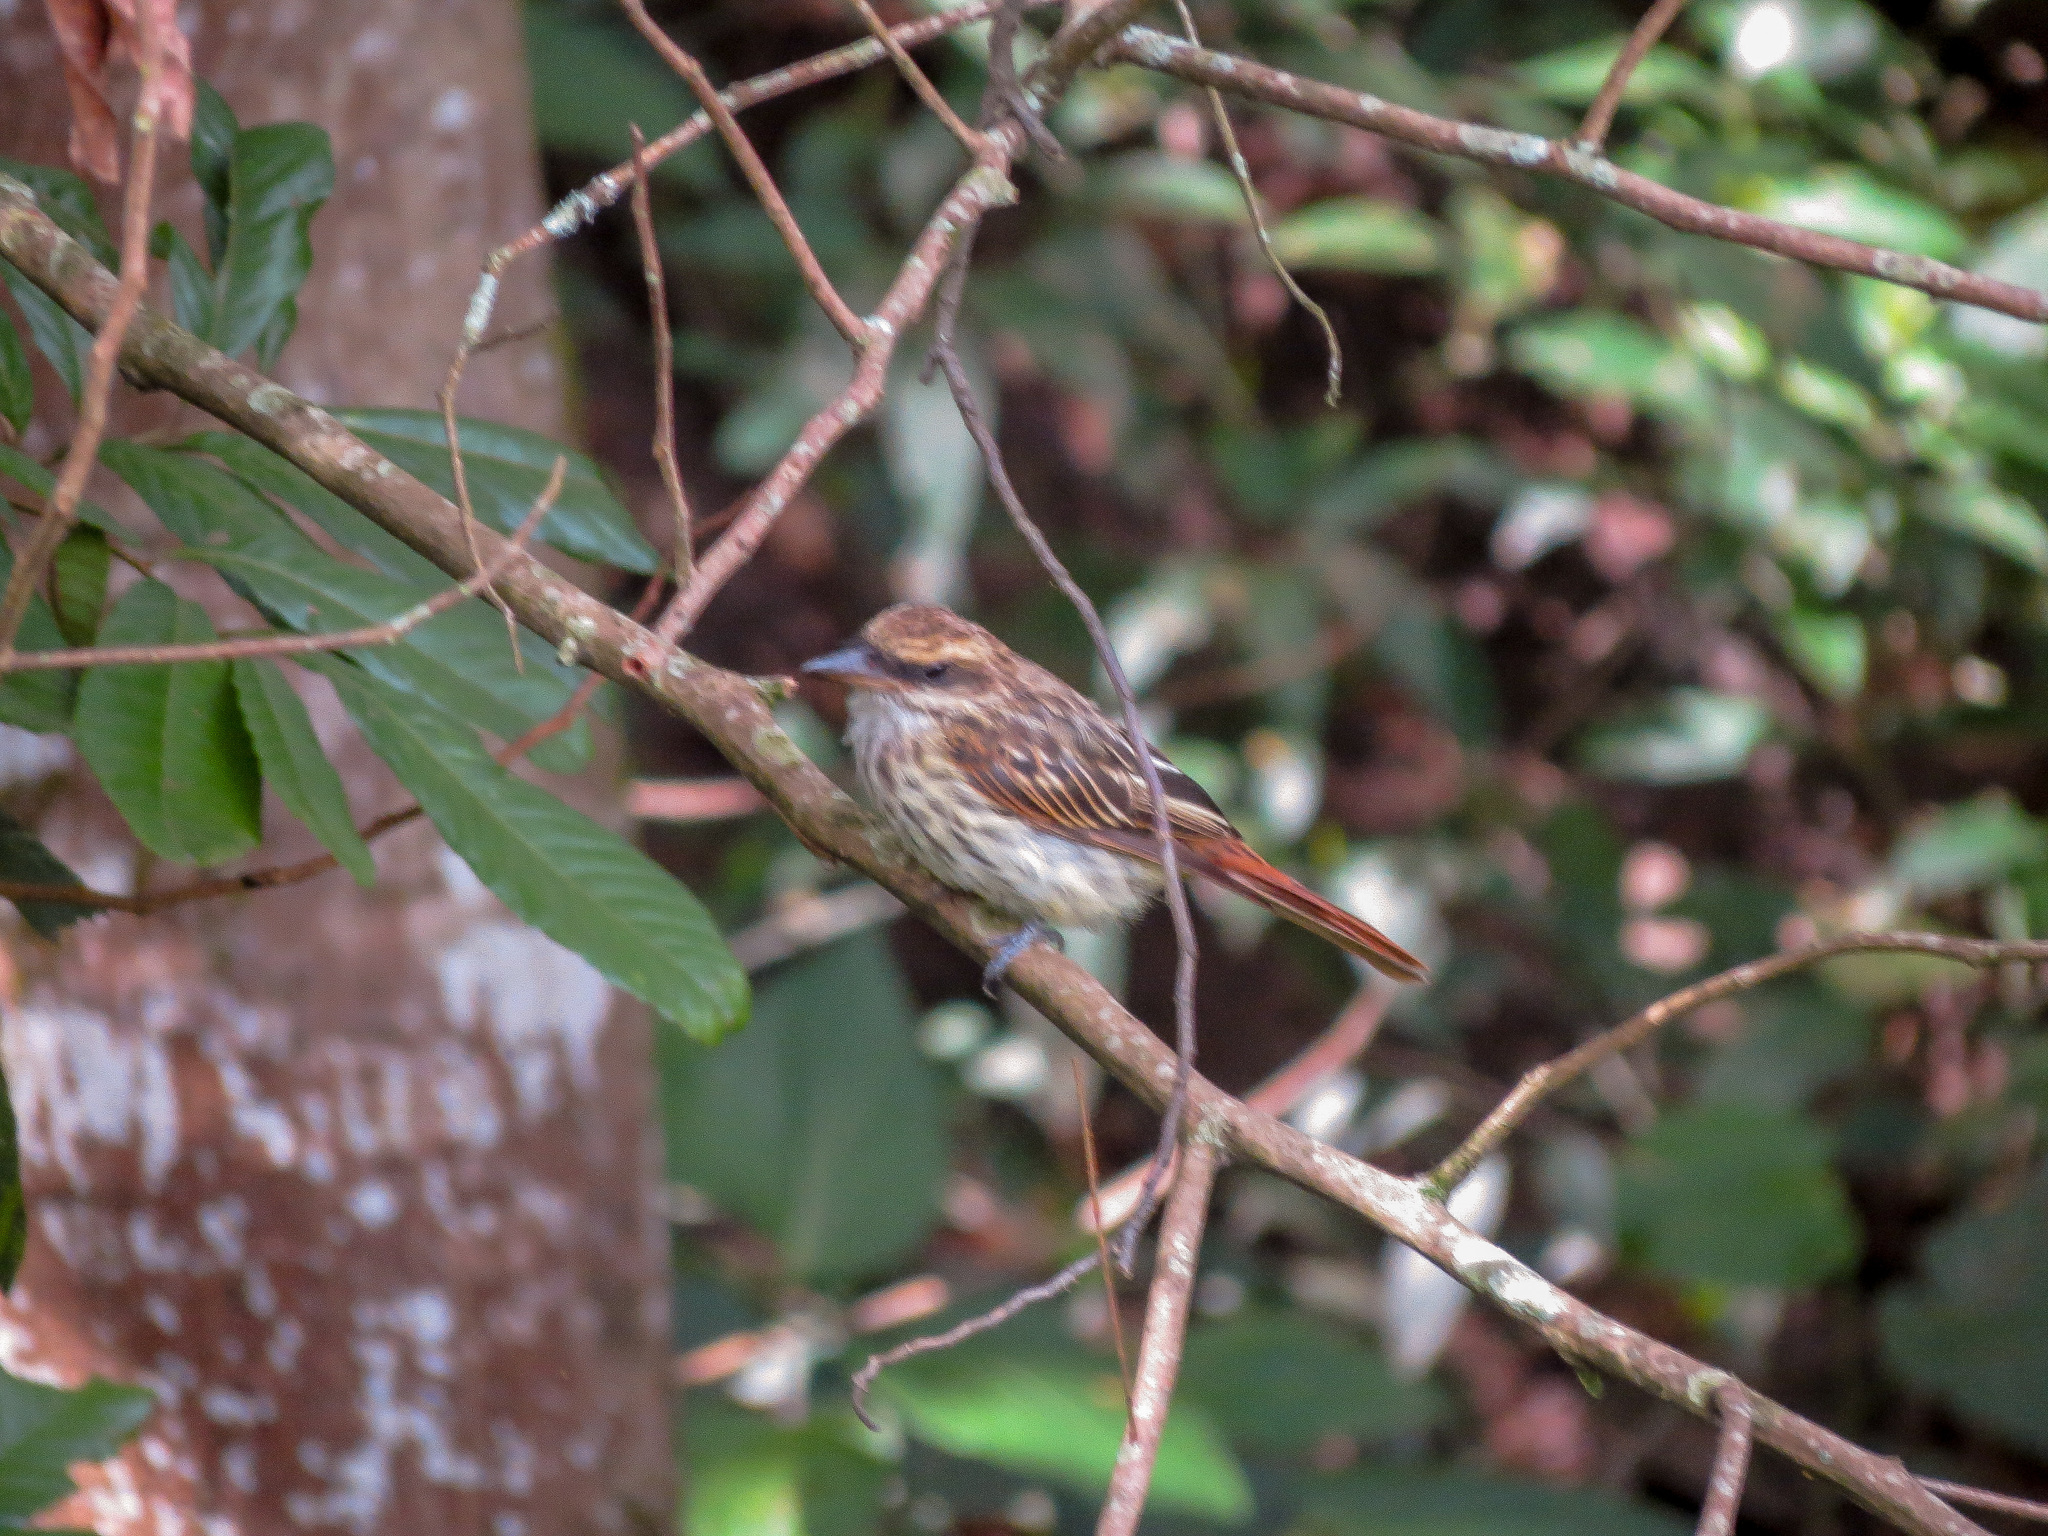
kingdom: Animalia
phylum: Chordata
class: Aves
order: Passeriformes
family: Tyrannidae
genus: Myiodynastes
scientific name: Myiodynastes maculatus
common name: Streaked flycatcher
